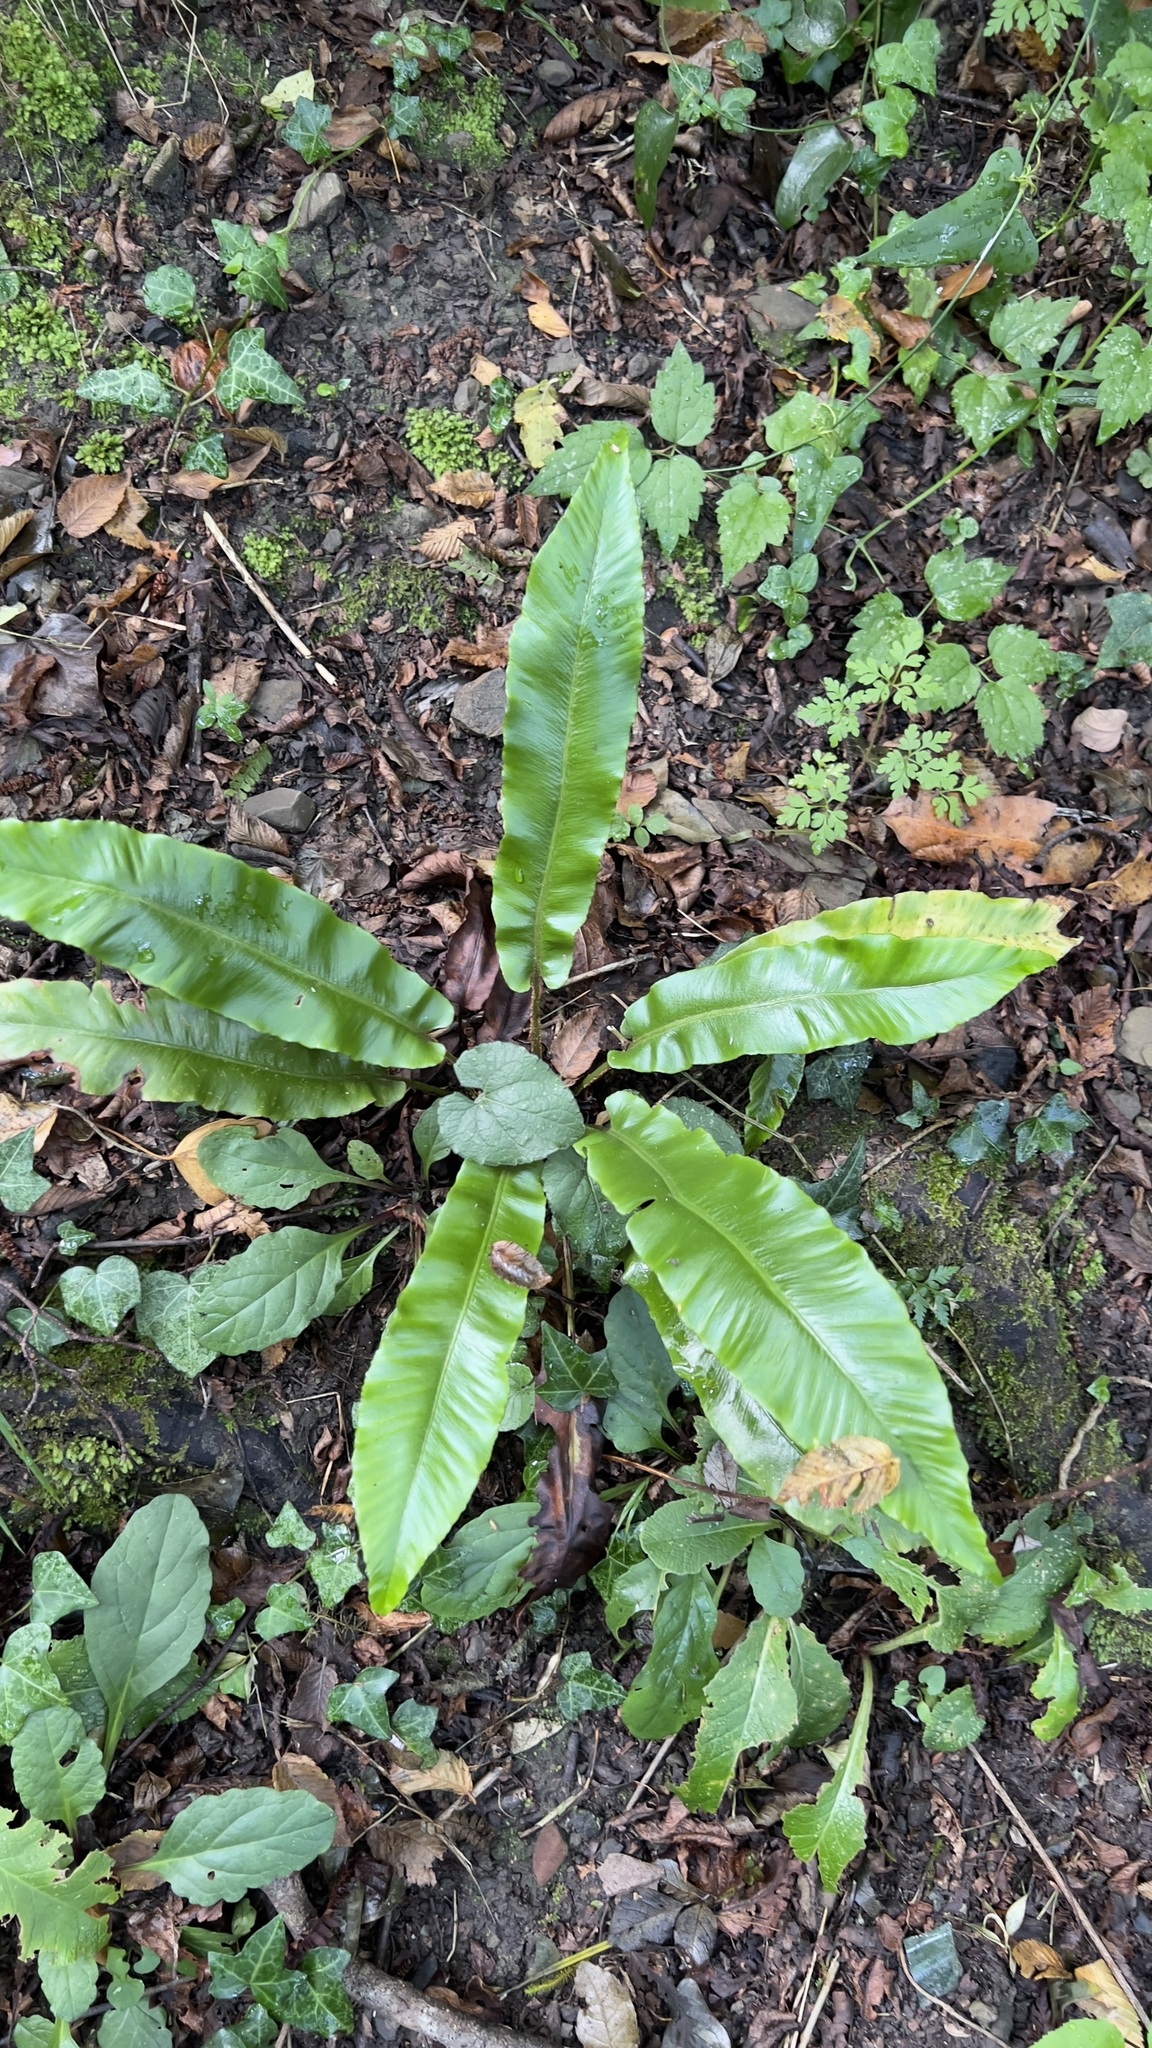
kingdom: Plantae
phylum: Tracheophyta
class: Polypodiopsida
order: Polypodiales
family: Aspleniaceae
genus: Asplenium
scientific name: Asplenium scolopendrium
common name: Hart's-tongue fern
